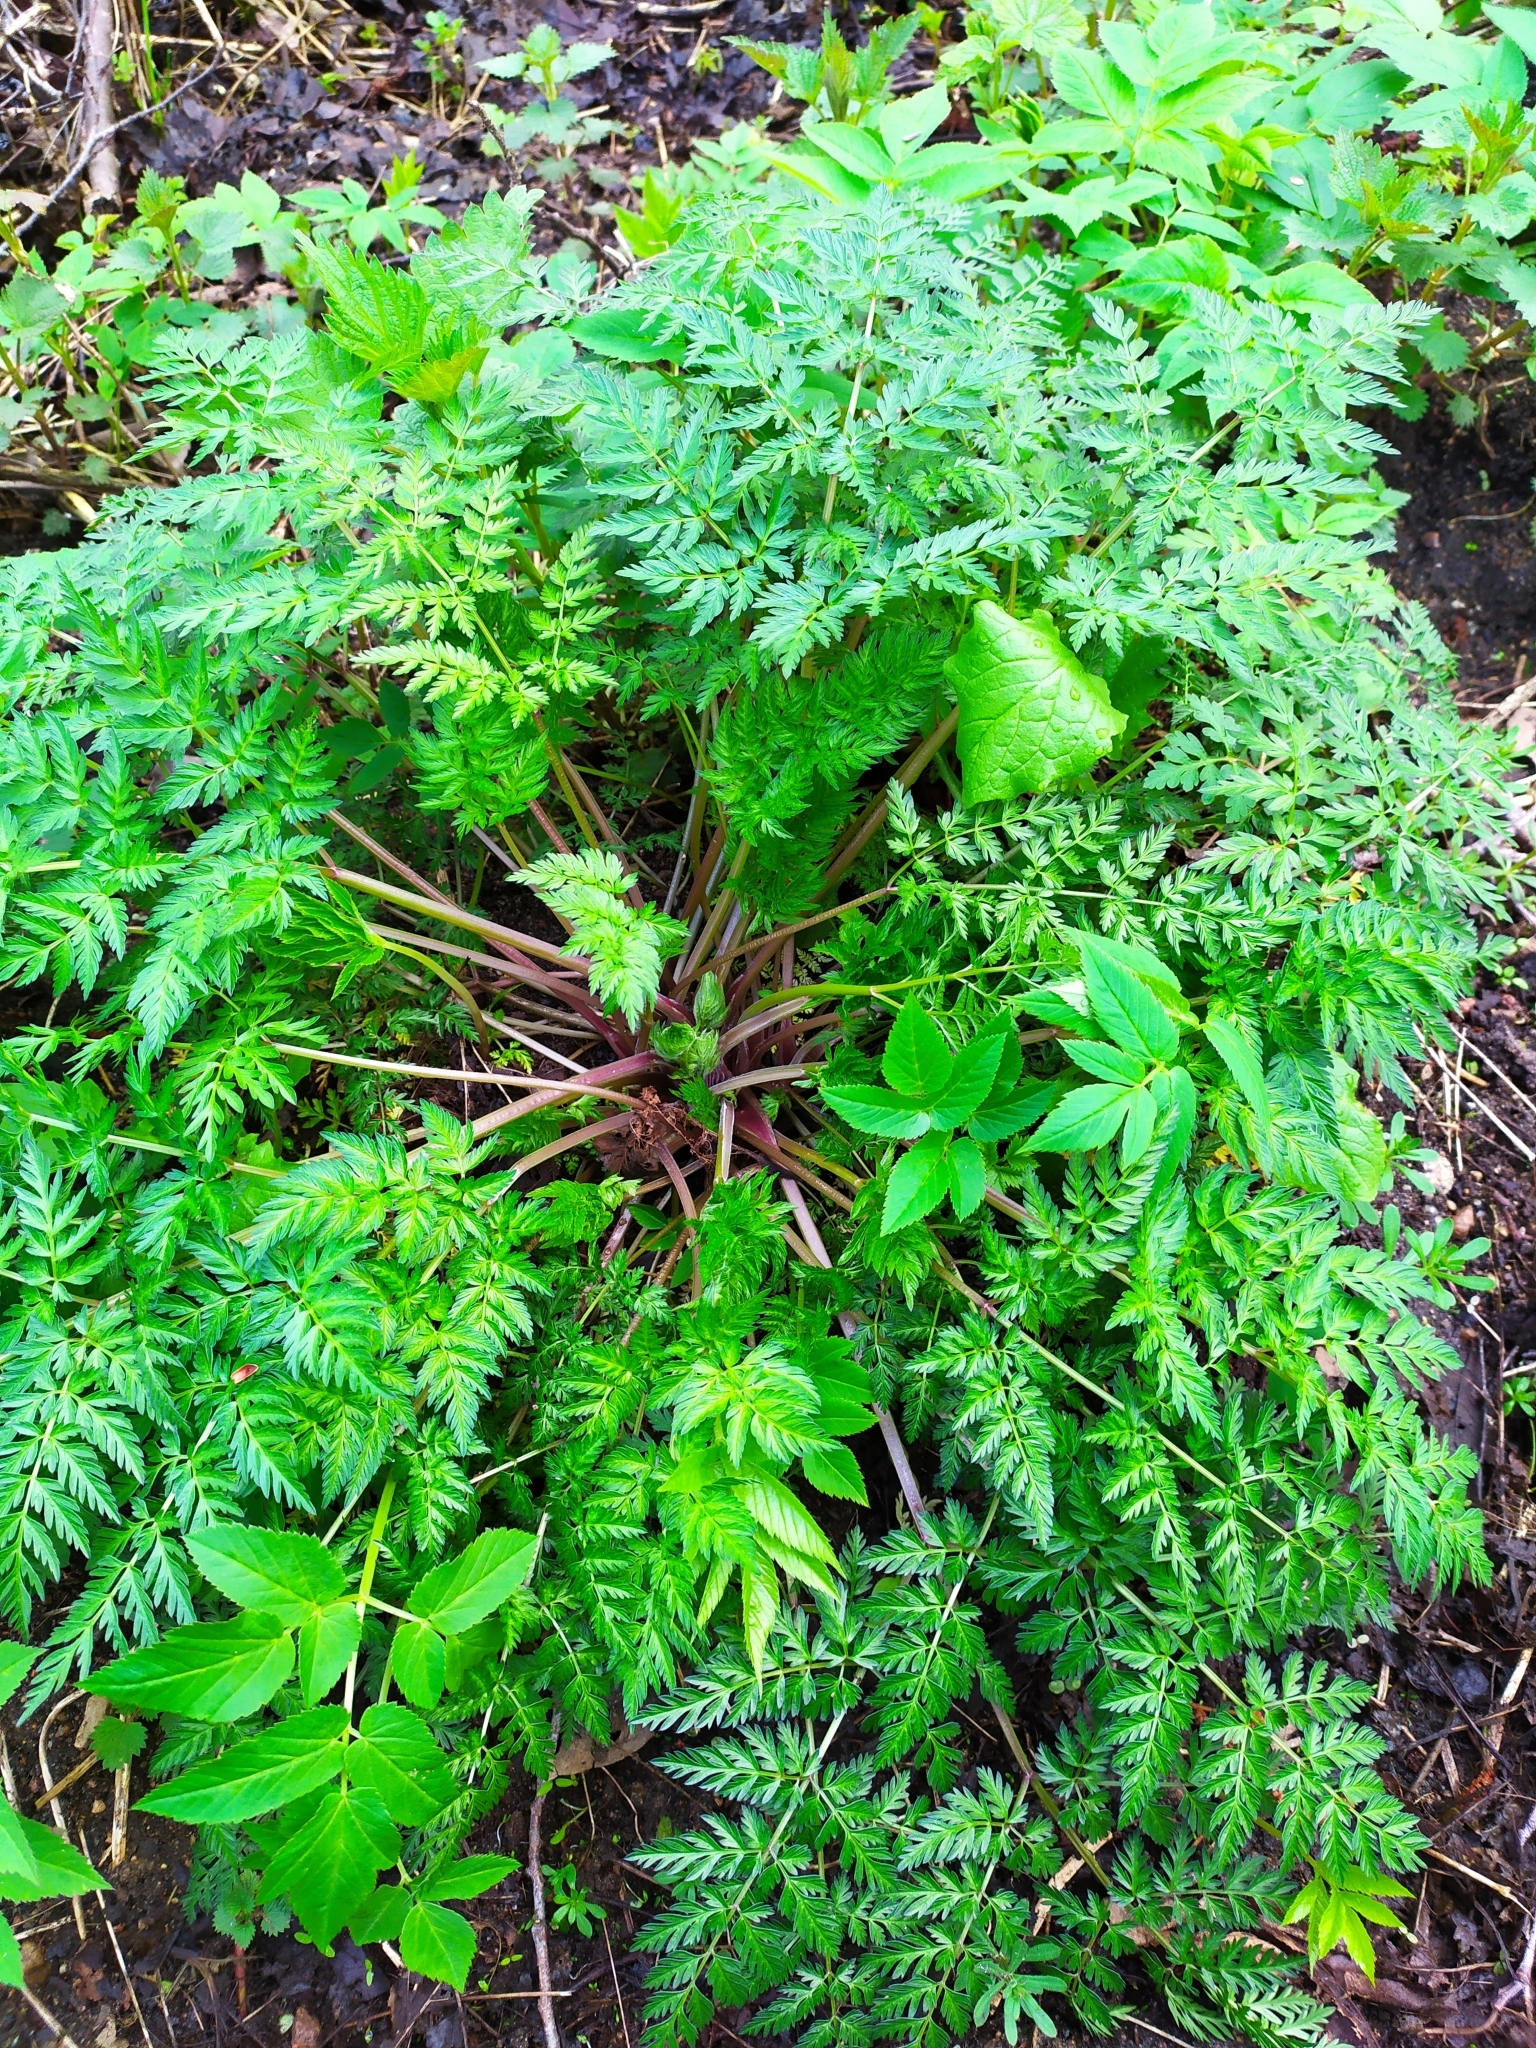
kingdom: Plantae
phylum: Tracheophyta
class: Magnoliopsida
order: Apiales
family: Apiaceae
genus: Anthriscus
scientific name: Anthriscus sylvestris
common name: Cow parsley
